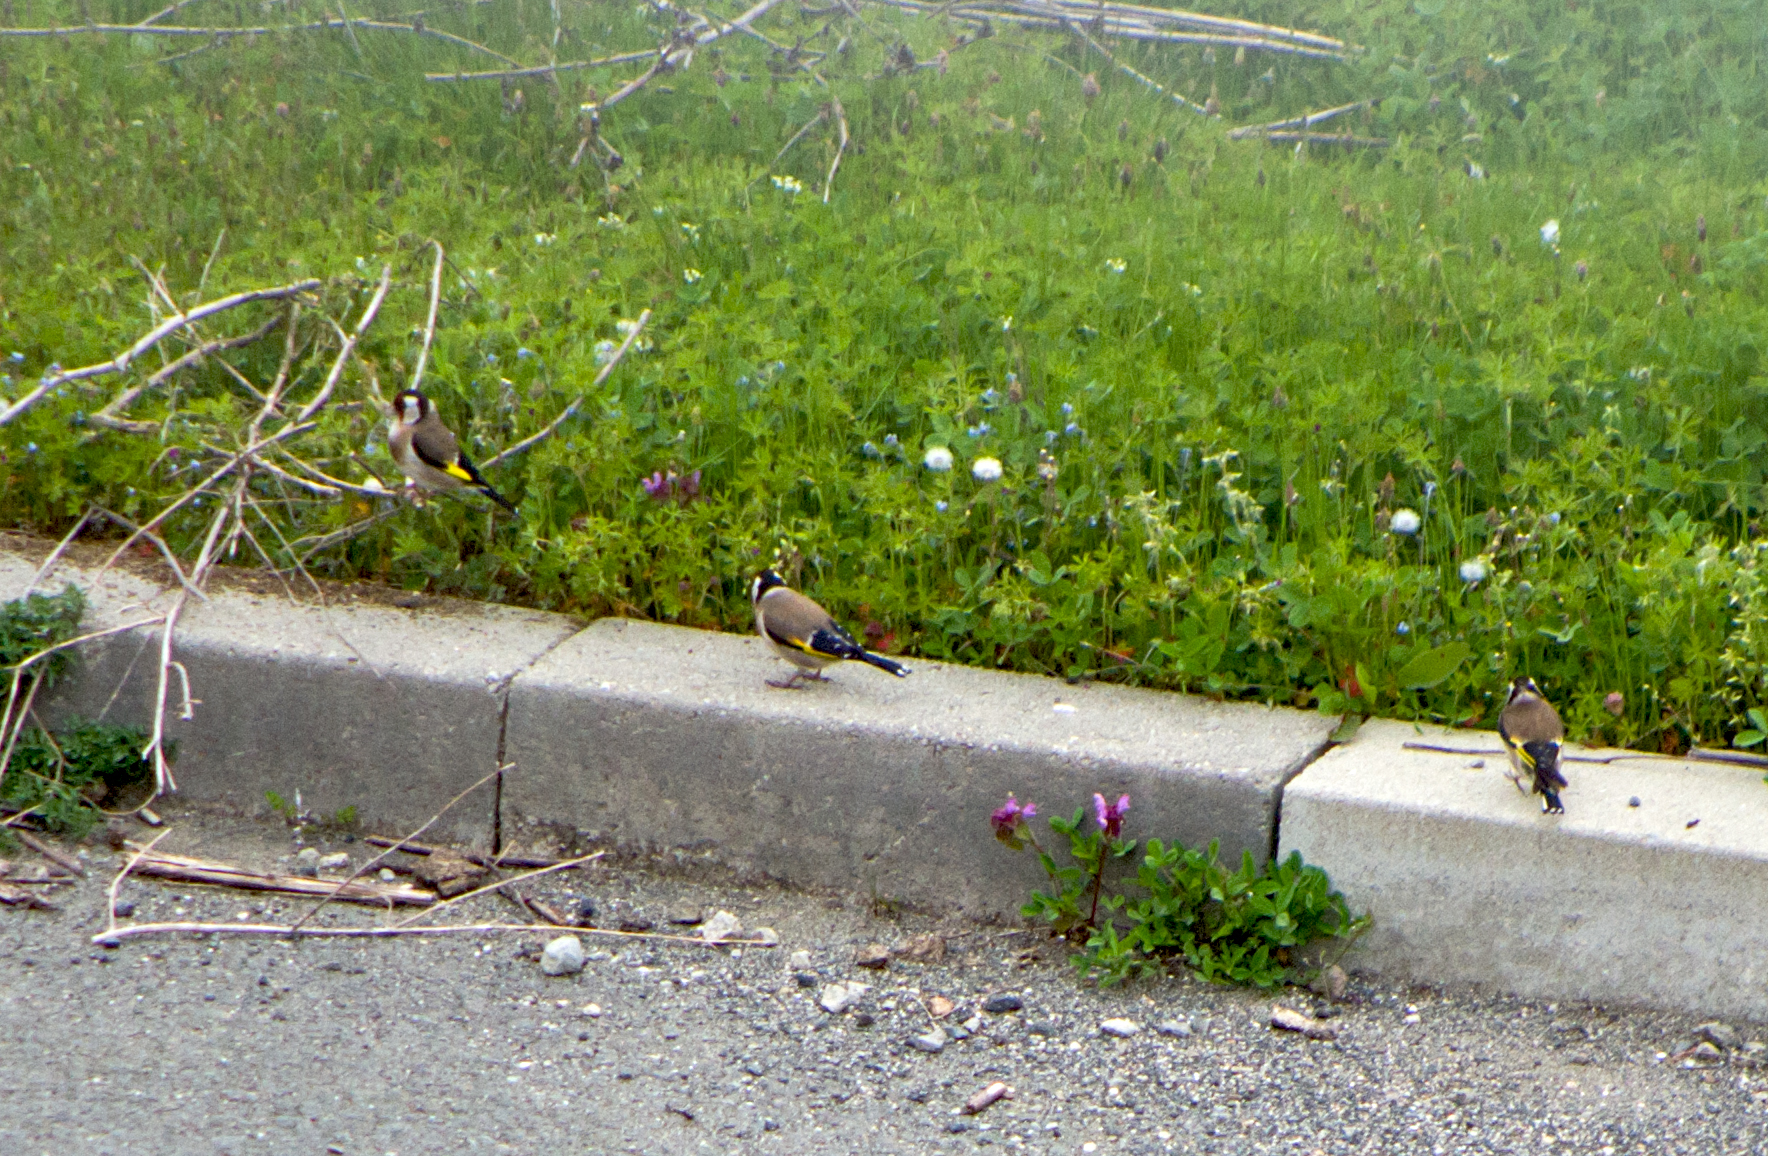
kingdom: Animalia
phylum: Chordata
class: Aves
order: Passeriformes
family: Fringillidae
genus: Carduelis
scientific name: Carduelis carduelis
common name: European goldfinch
